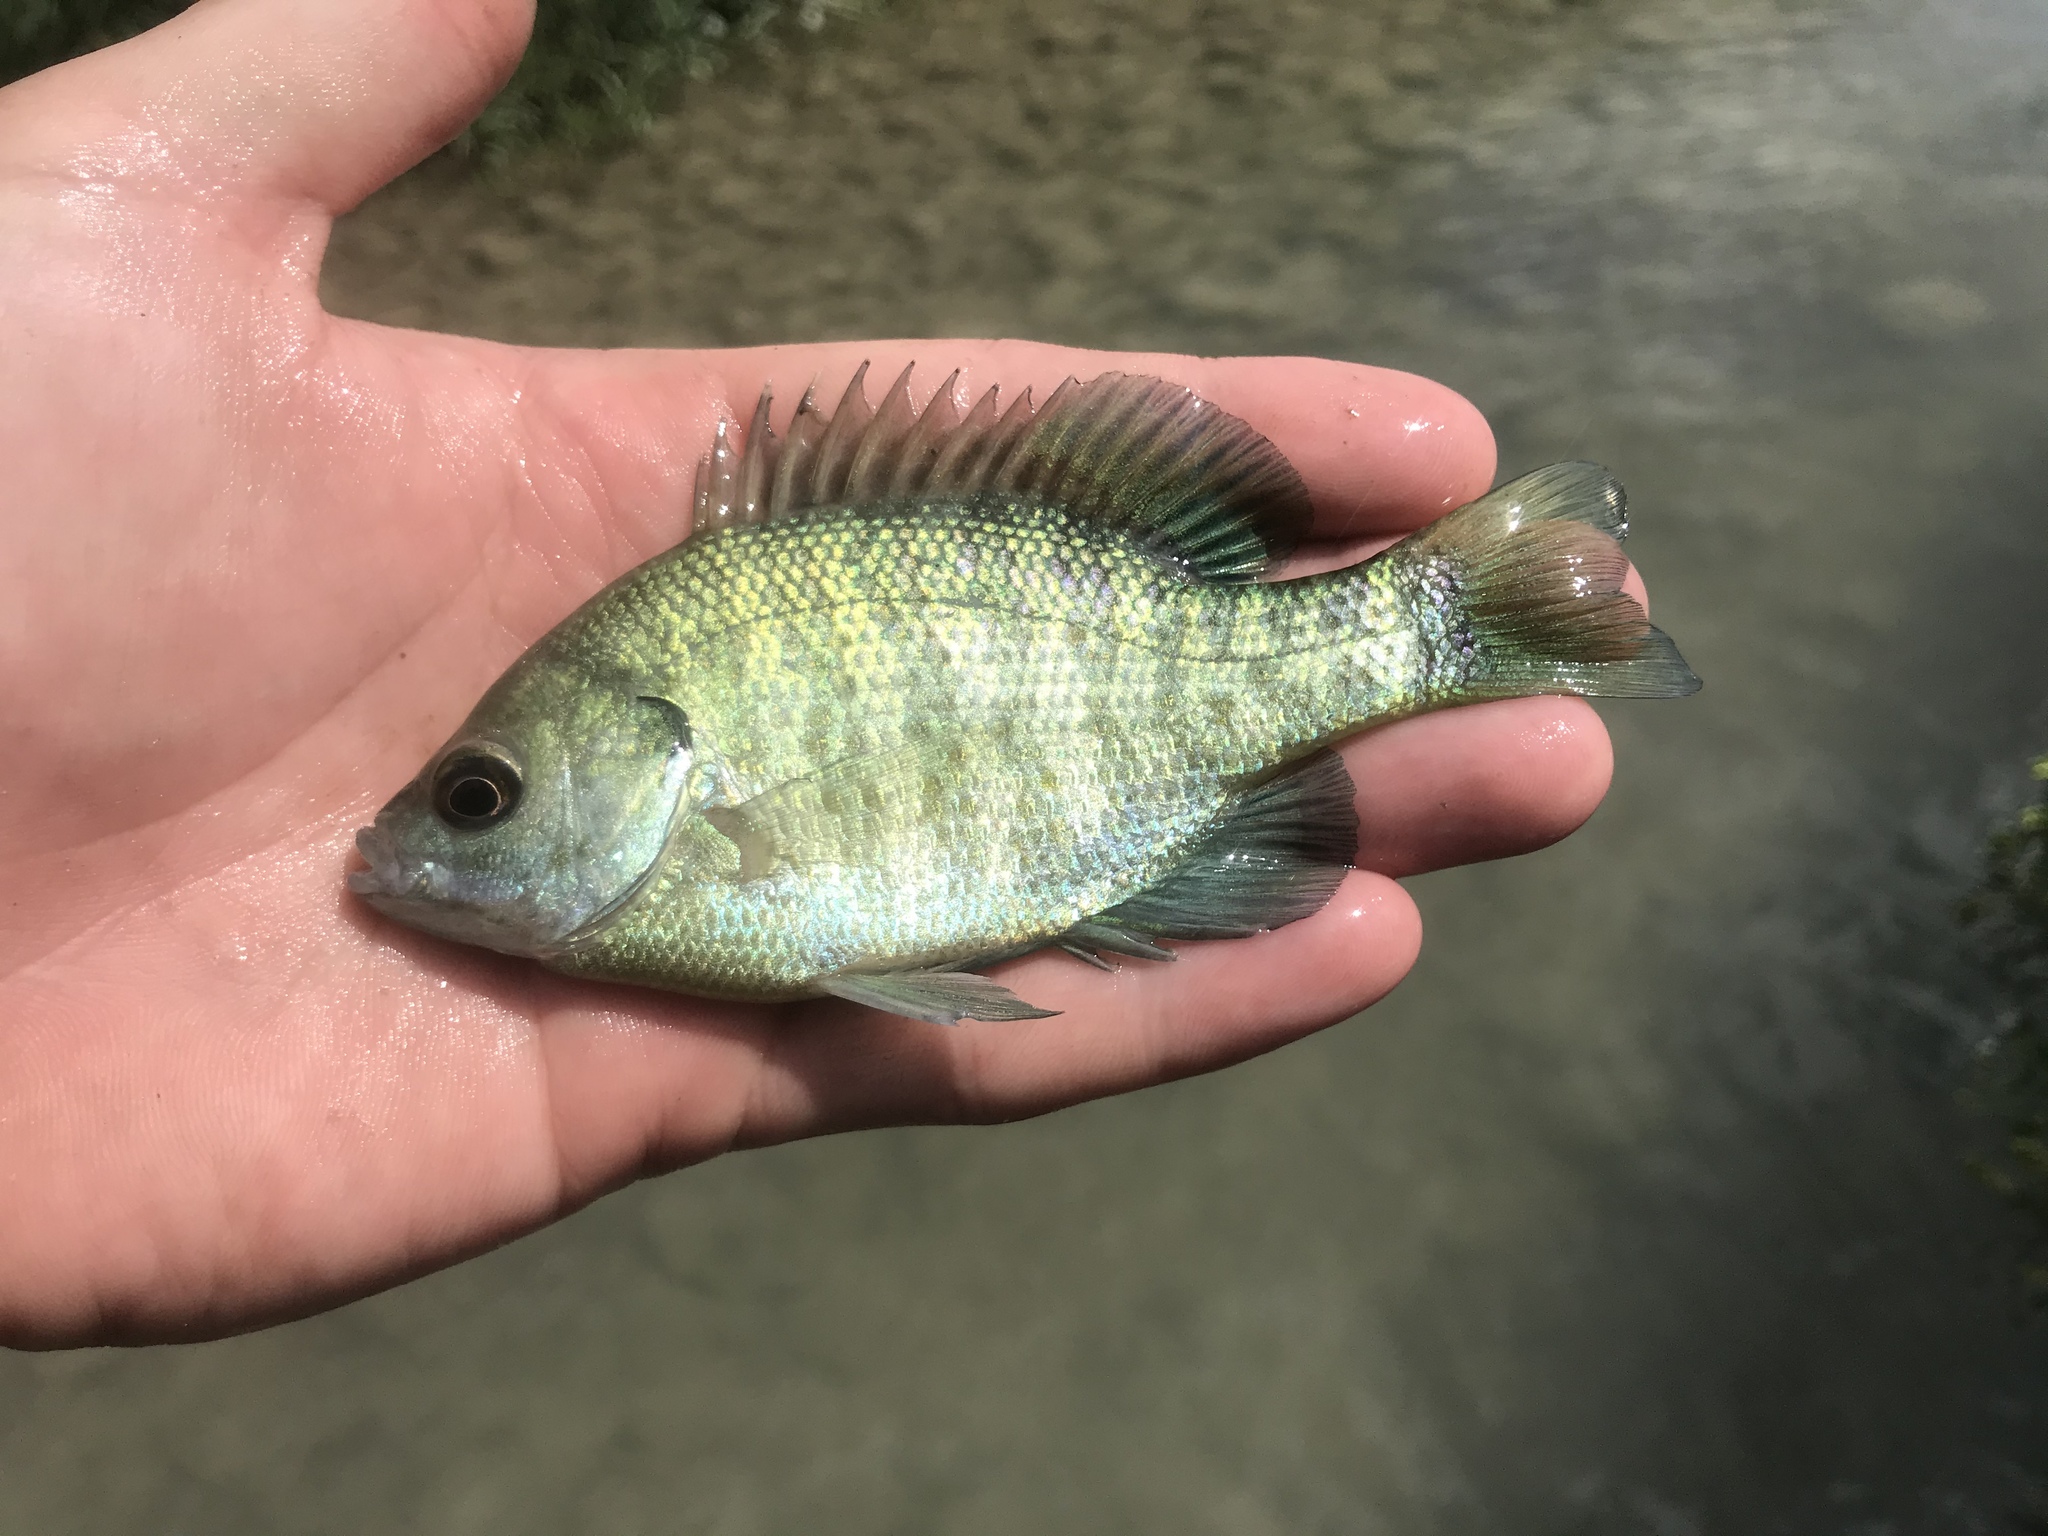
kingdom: Animalia
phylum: Chordata
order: Perciformes
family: Centrarchidae
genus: Lepomis
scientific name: Lepomis macrochirus
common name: Bluegill
